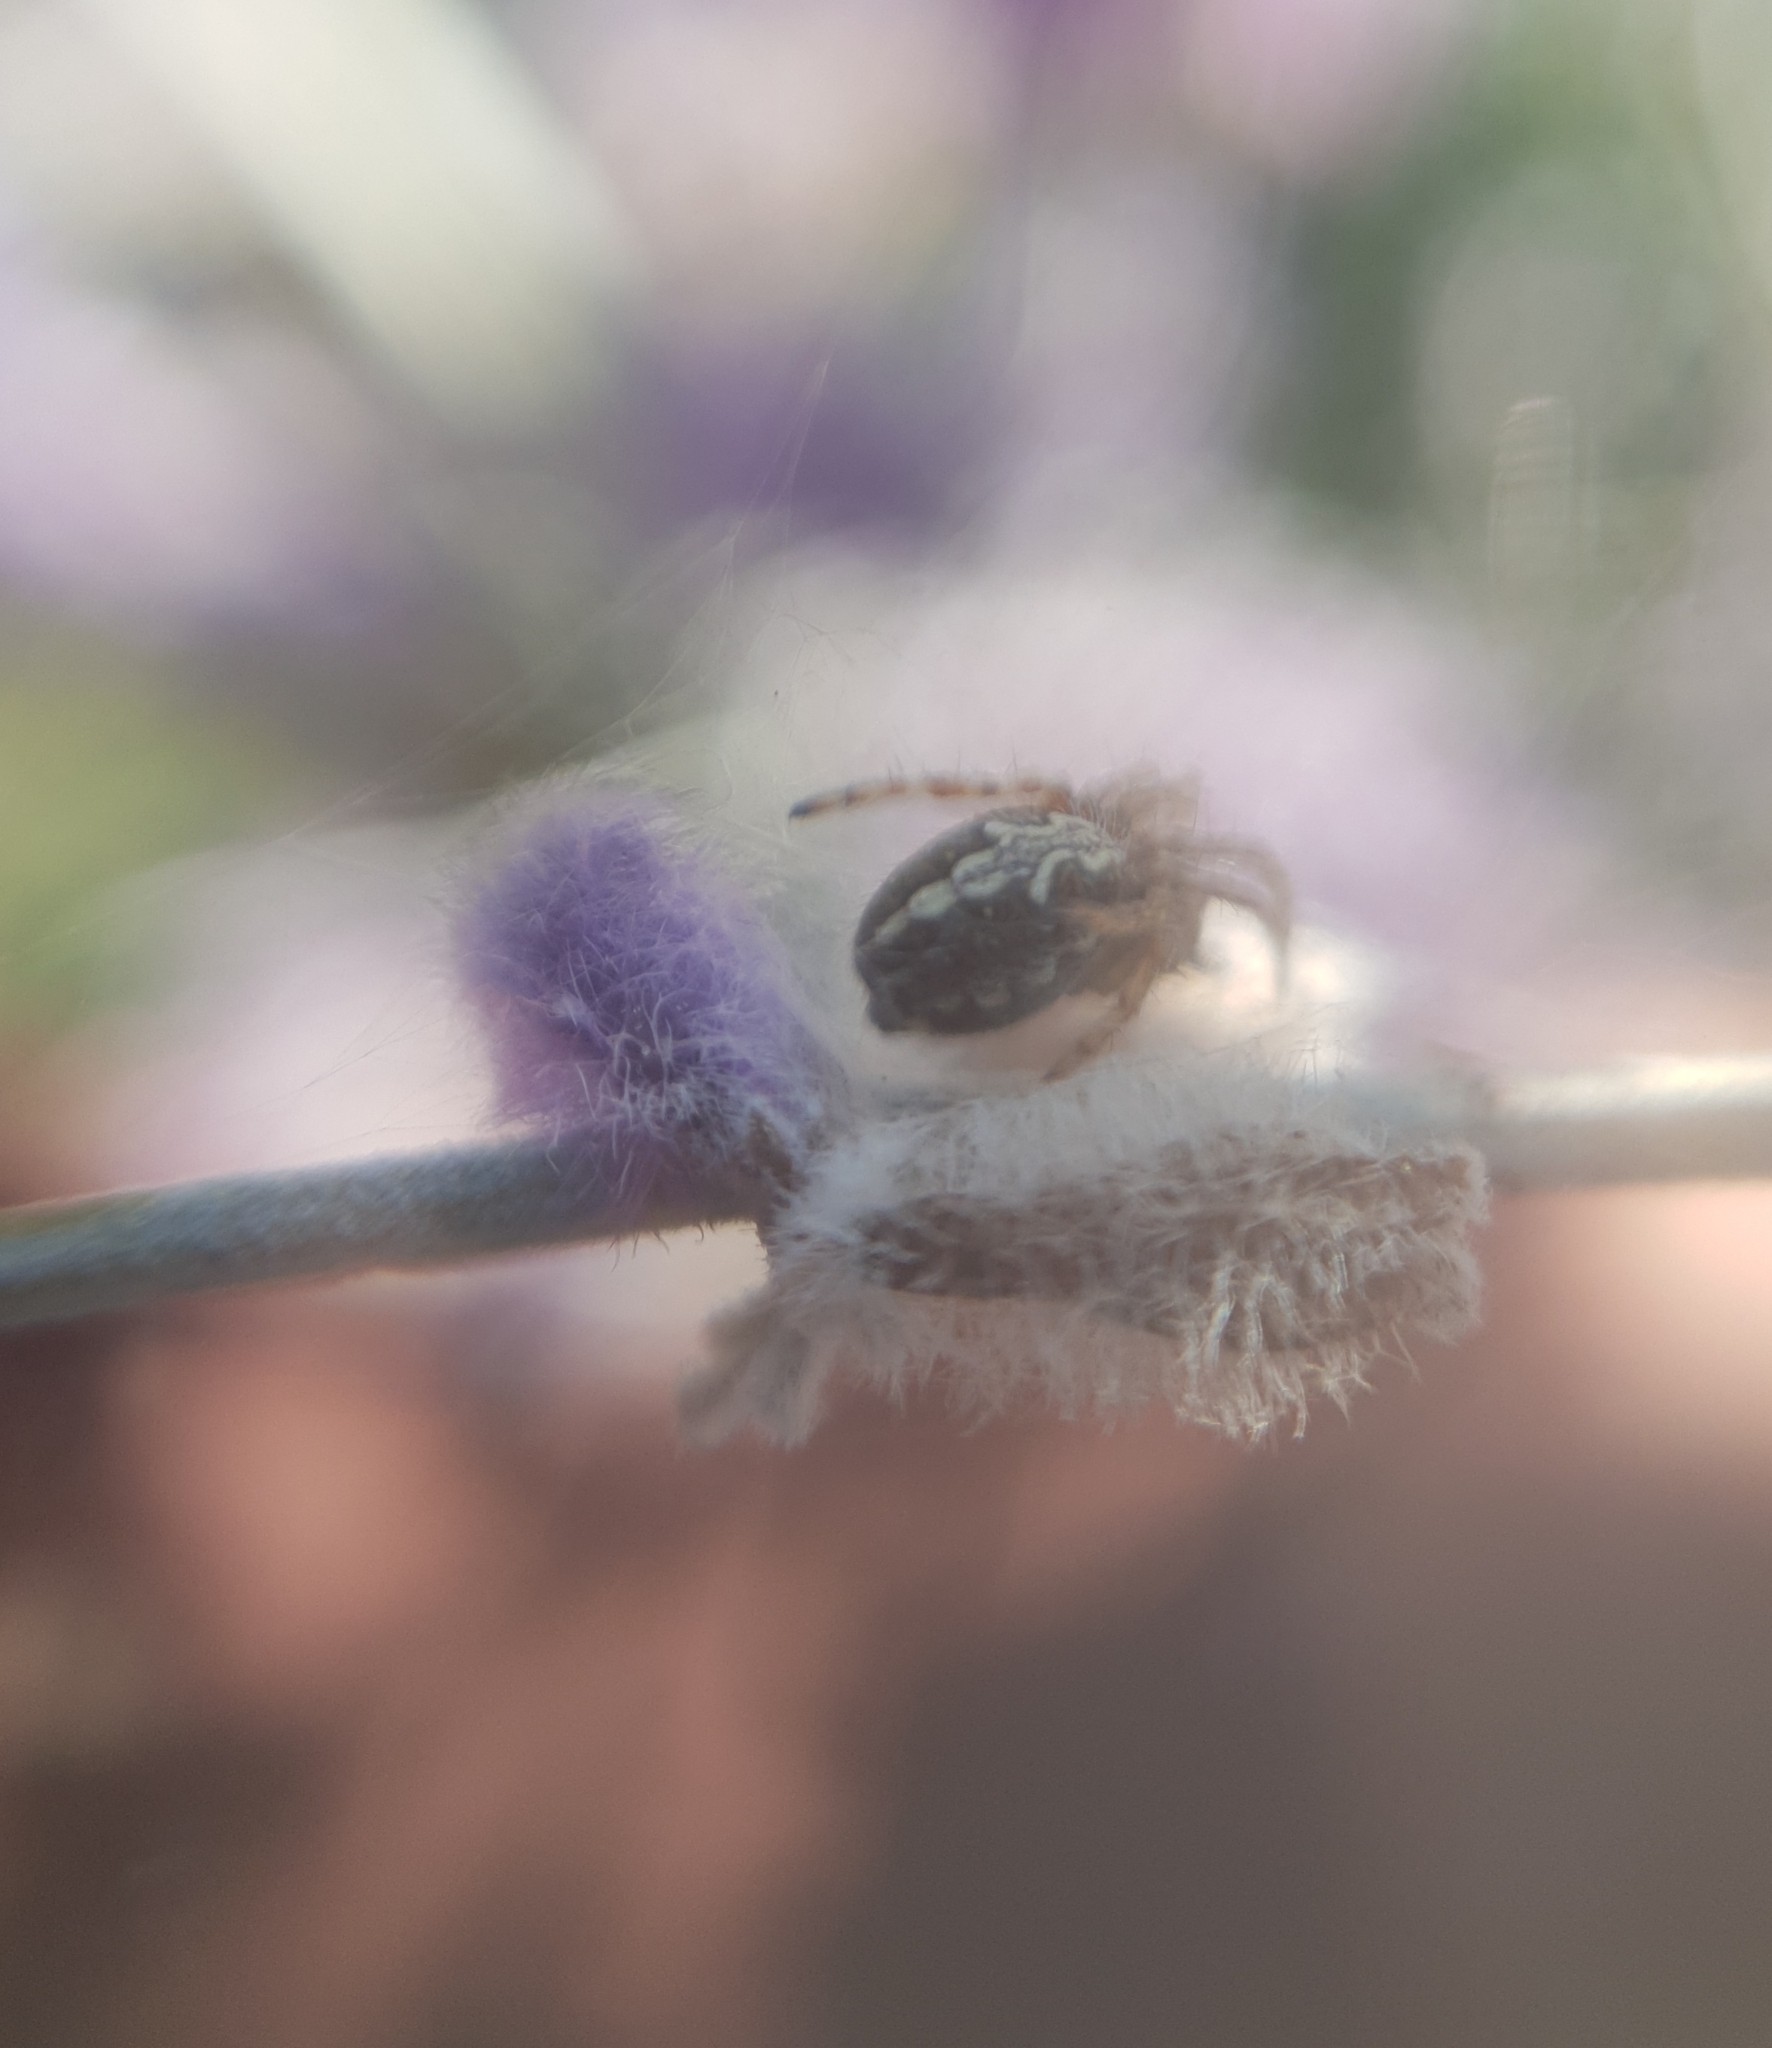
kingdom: Animalia
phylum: Arthropoda
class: Arachnida
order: Araneae
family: Araneidae
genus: Aculepeira
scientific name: Aculepeira ceropegia
